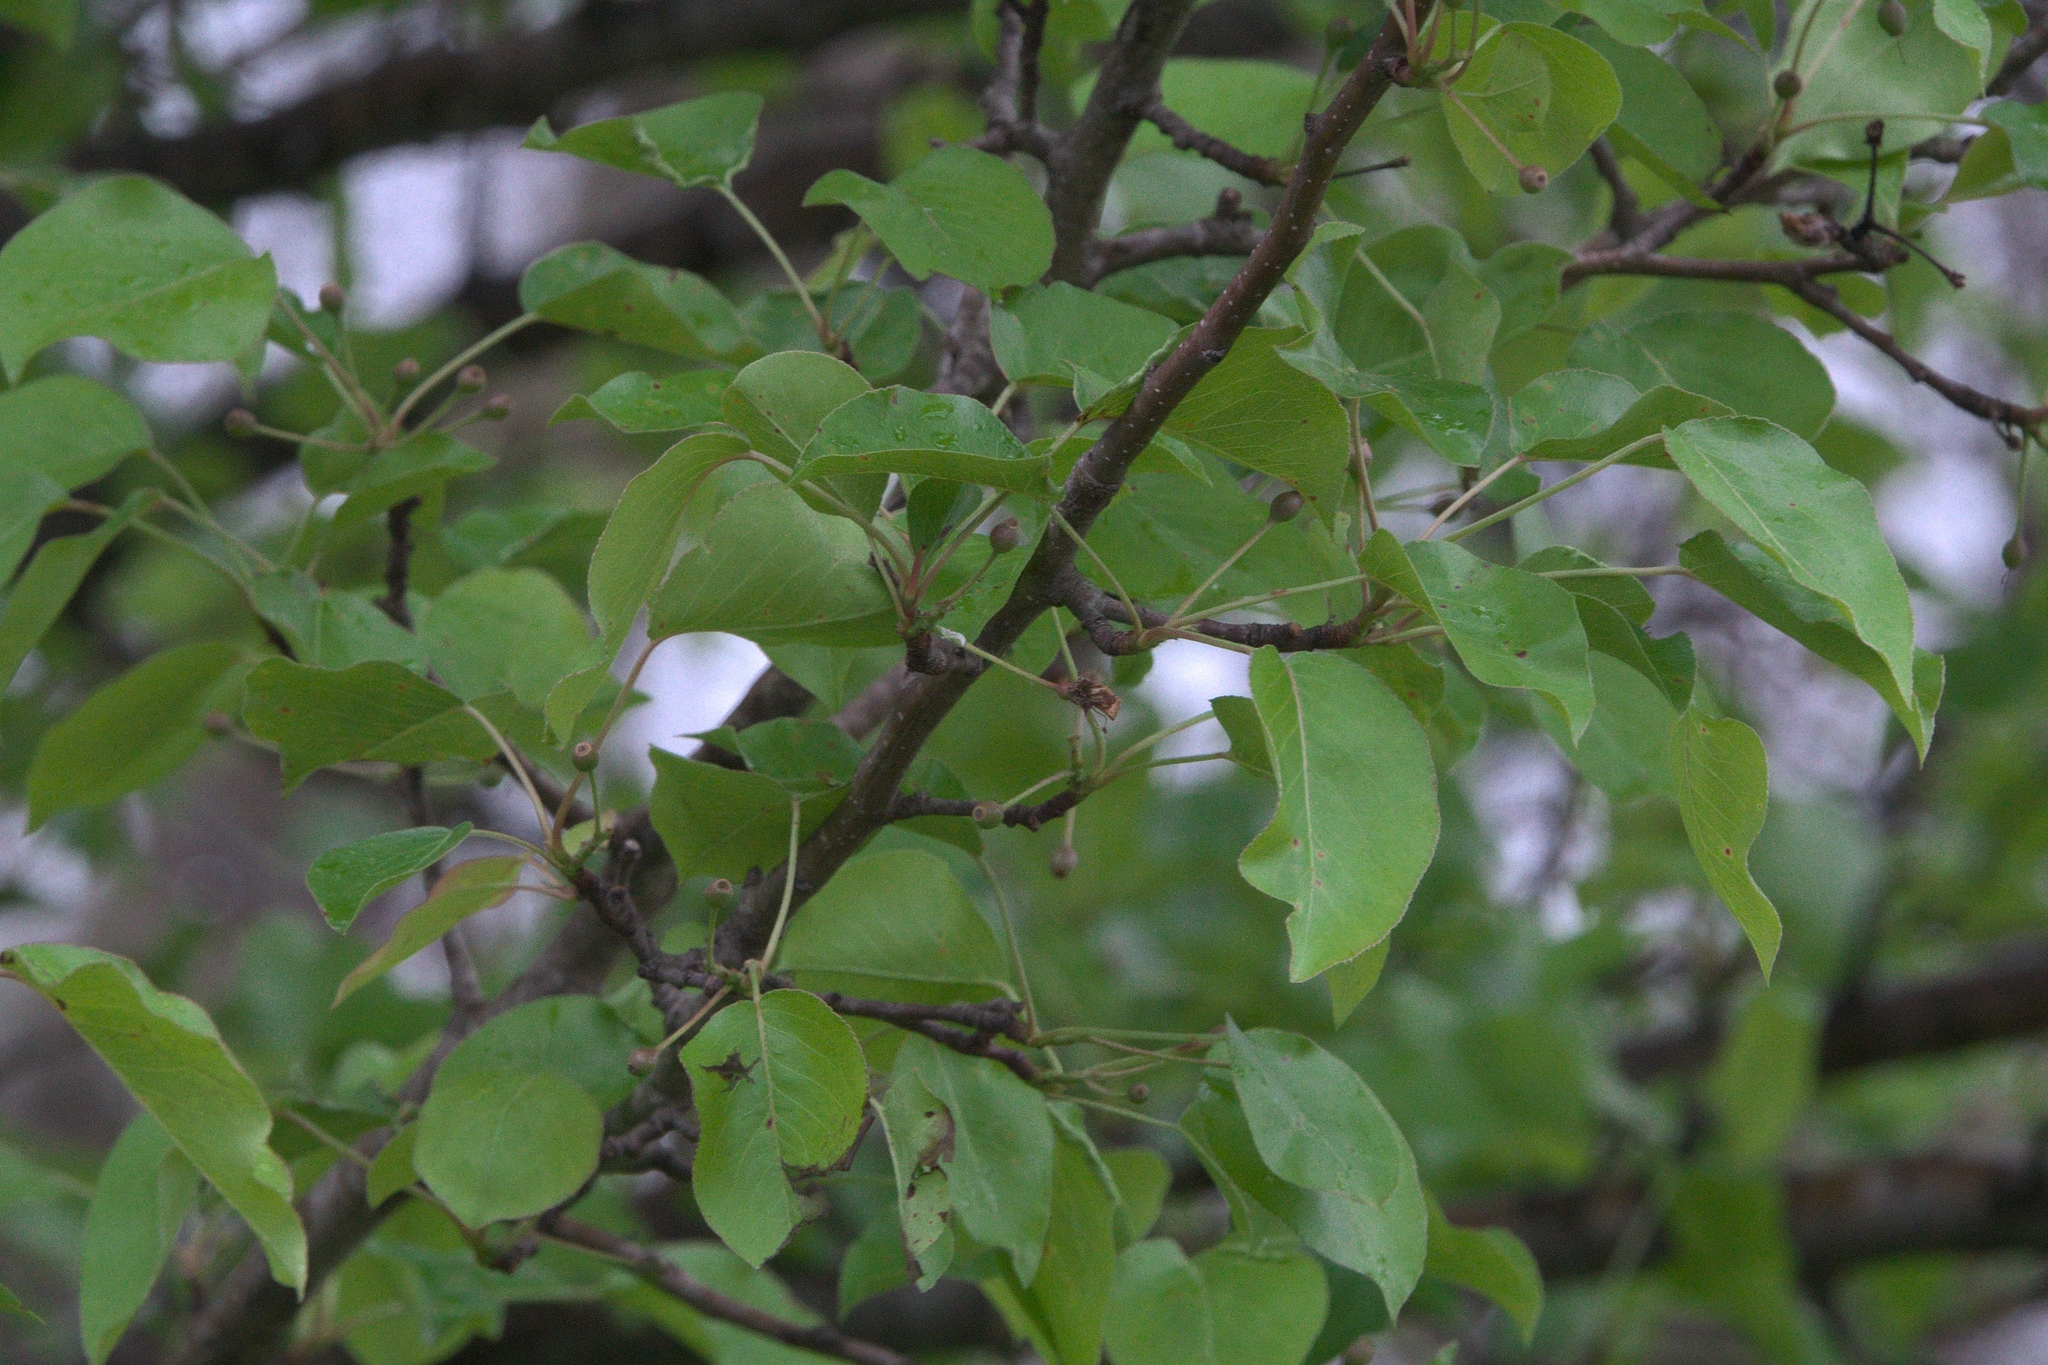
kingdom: Plantae
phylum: Tracheophyta
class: Magnoliopsida
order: Rosales
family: Rosaceae
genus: Pyrus
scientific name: Pyrus calleryana
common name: Callery pear
